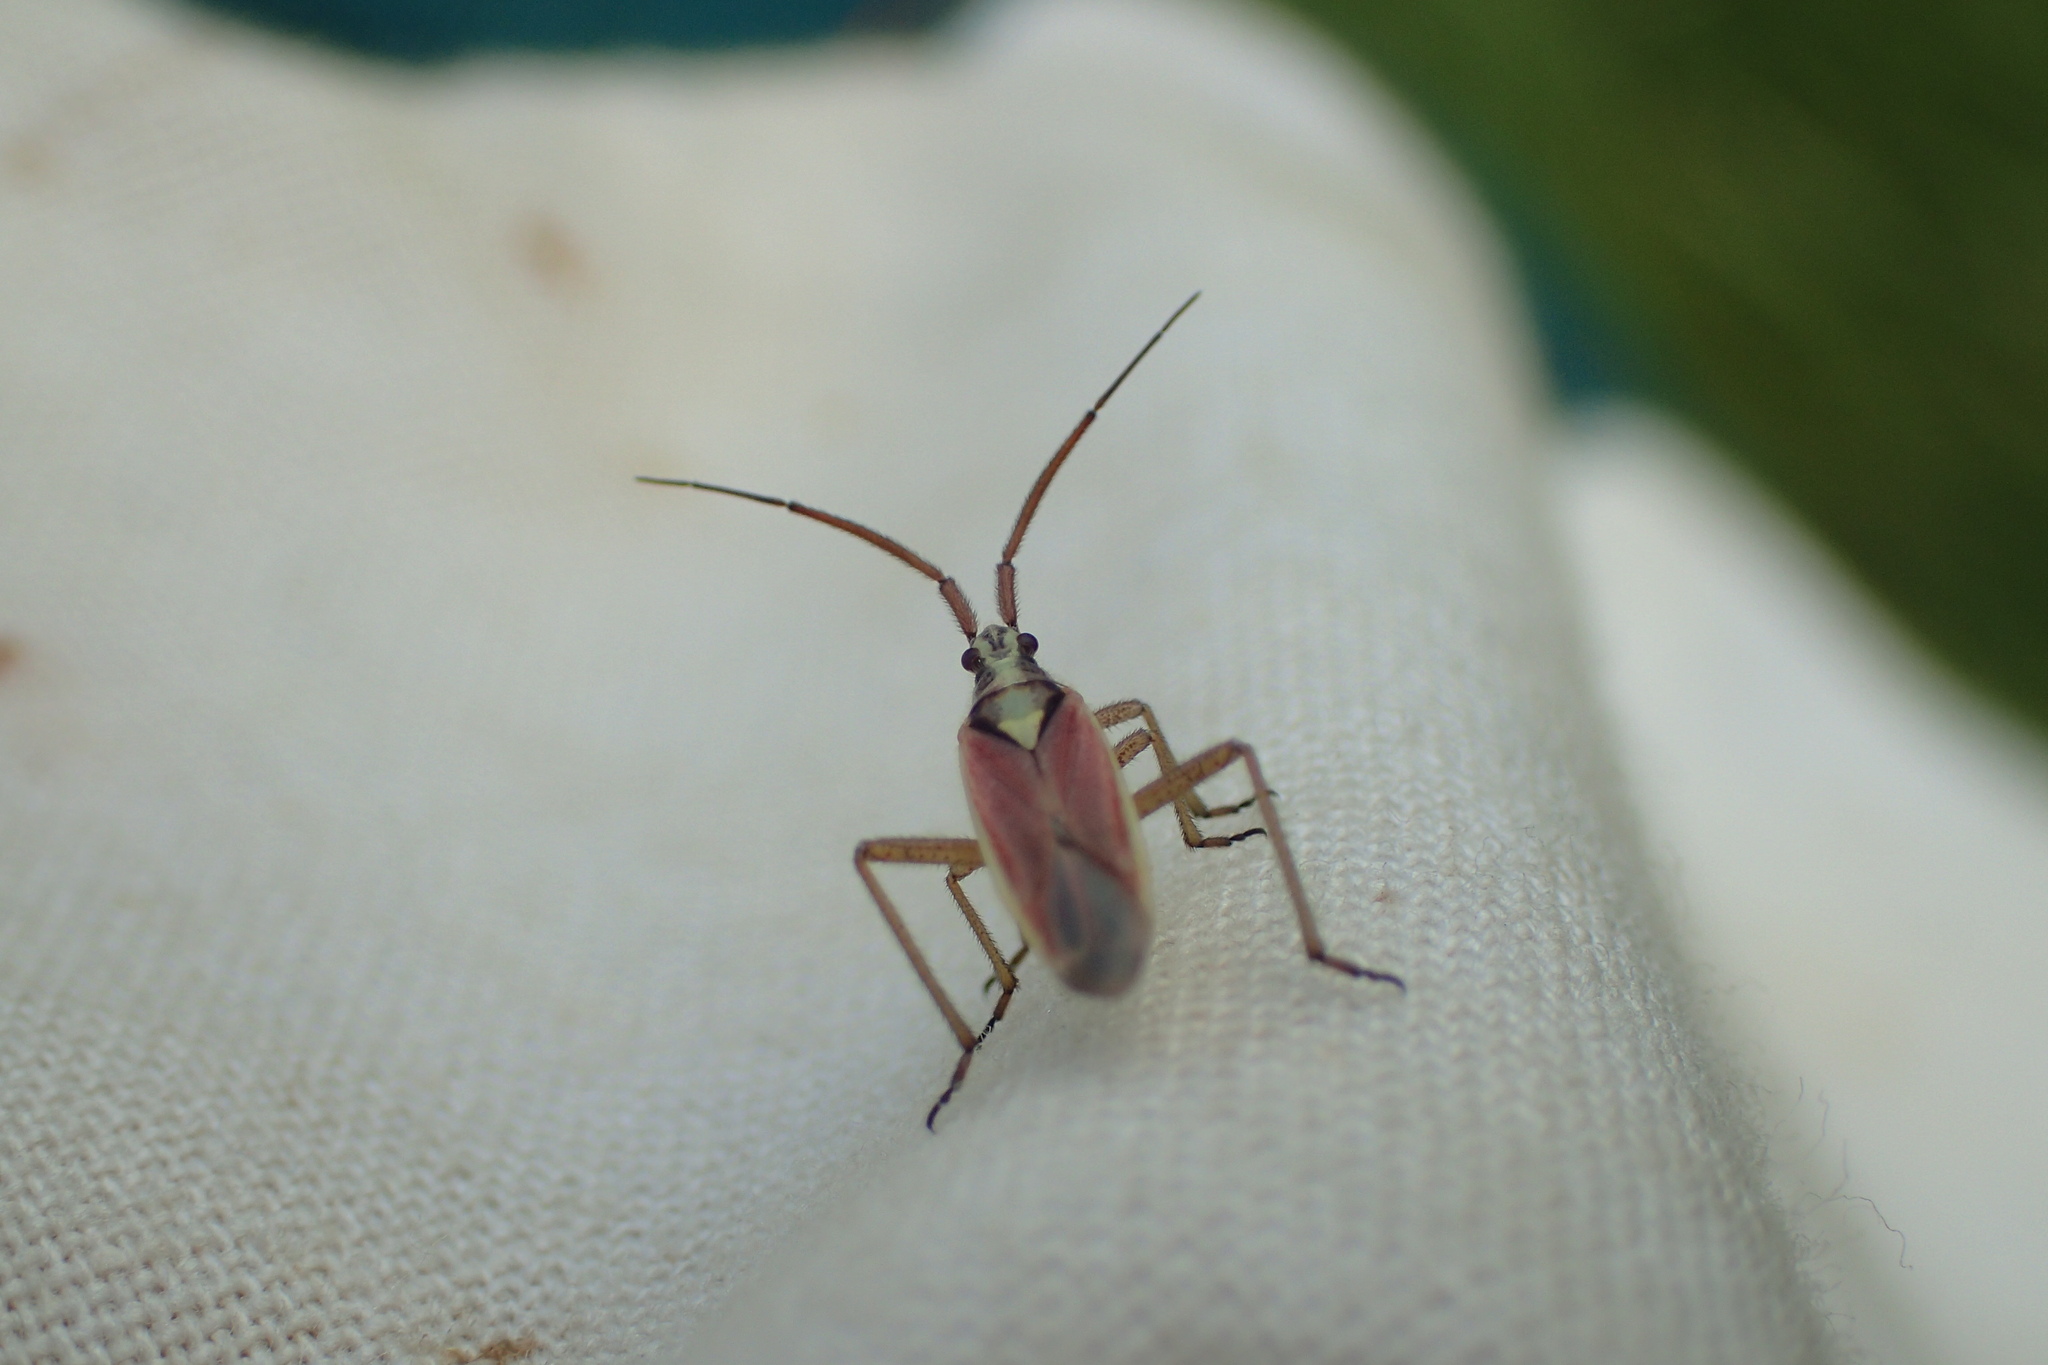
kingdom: Animalia
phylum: Arthropoda
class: Insecta
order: Hemiptera
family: Miridae
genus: Leptopterna
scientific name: Leptopterna ferrugata
